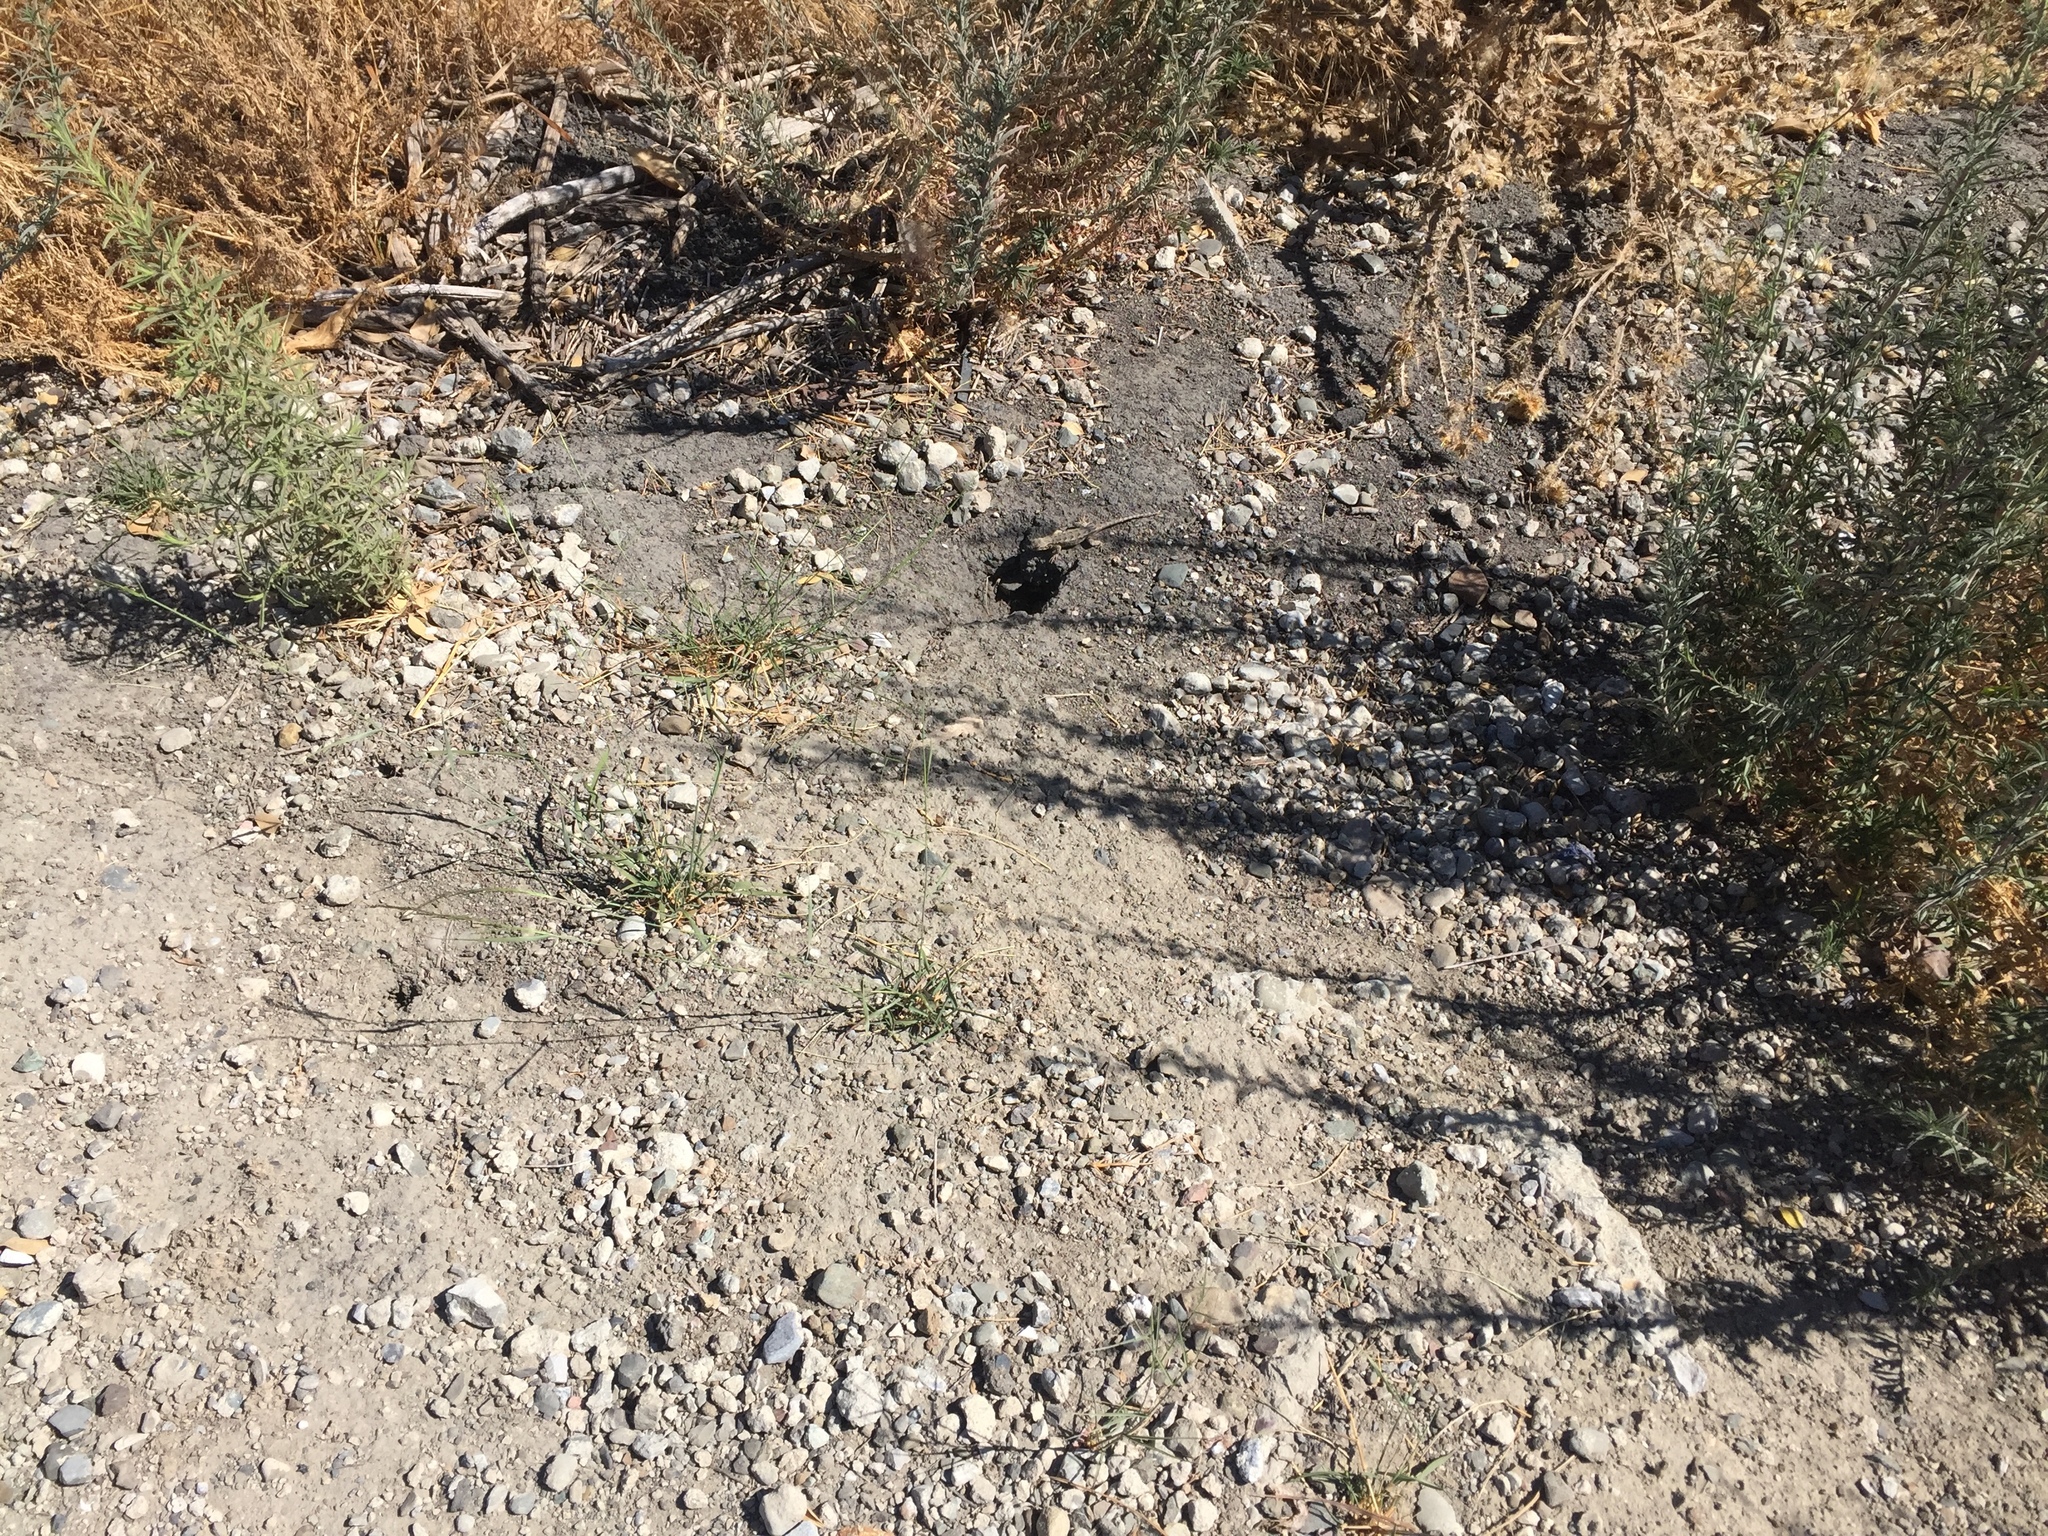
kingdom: Animalia
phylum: Chordata
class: Squamata
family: Phrynosomatidae
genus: Sceloporus
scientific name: Sceloporus occidentalis
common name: Western fence lizard
